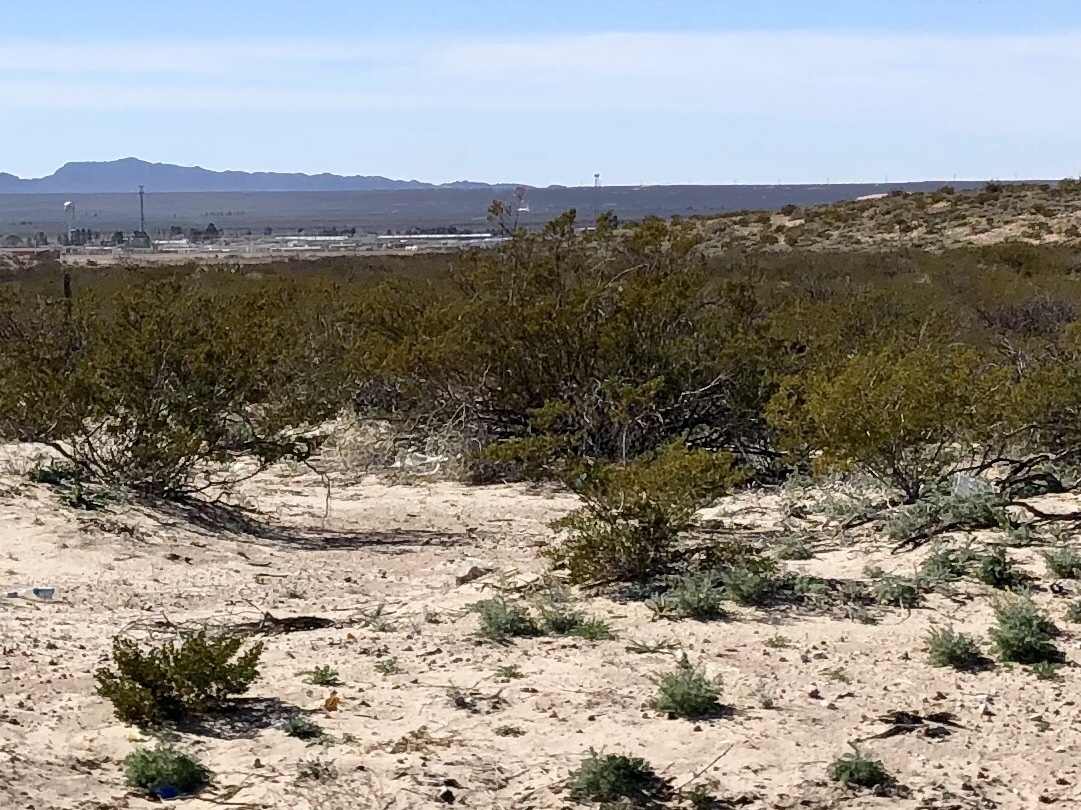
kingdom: Plantae
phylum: Tracheophyta
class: Magnoliopsida
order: Zygophyllales
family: Zygophyllaceae
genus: Larrea
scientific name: Larrea tridentata
